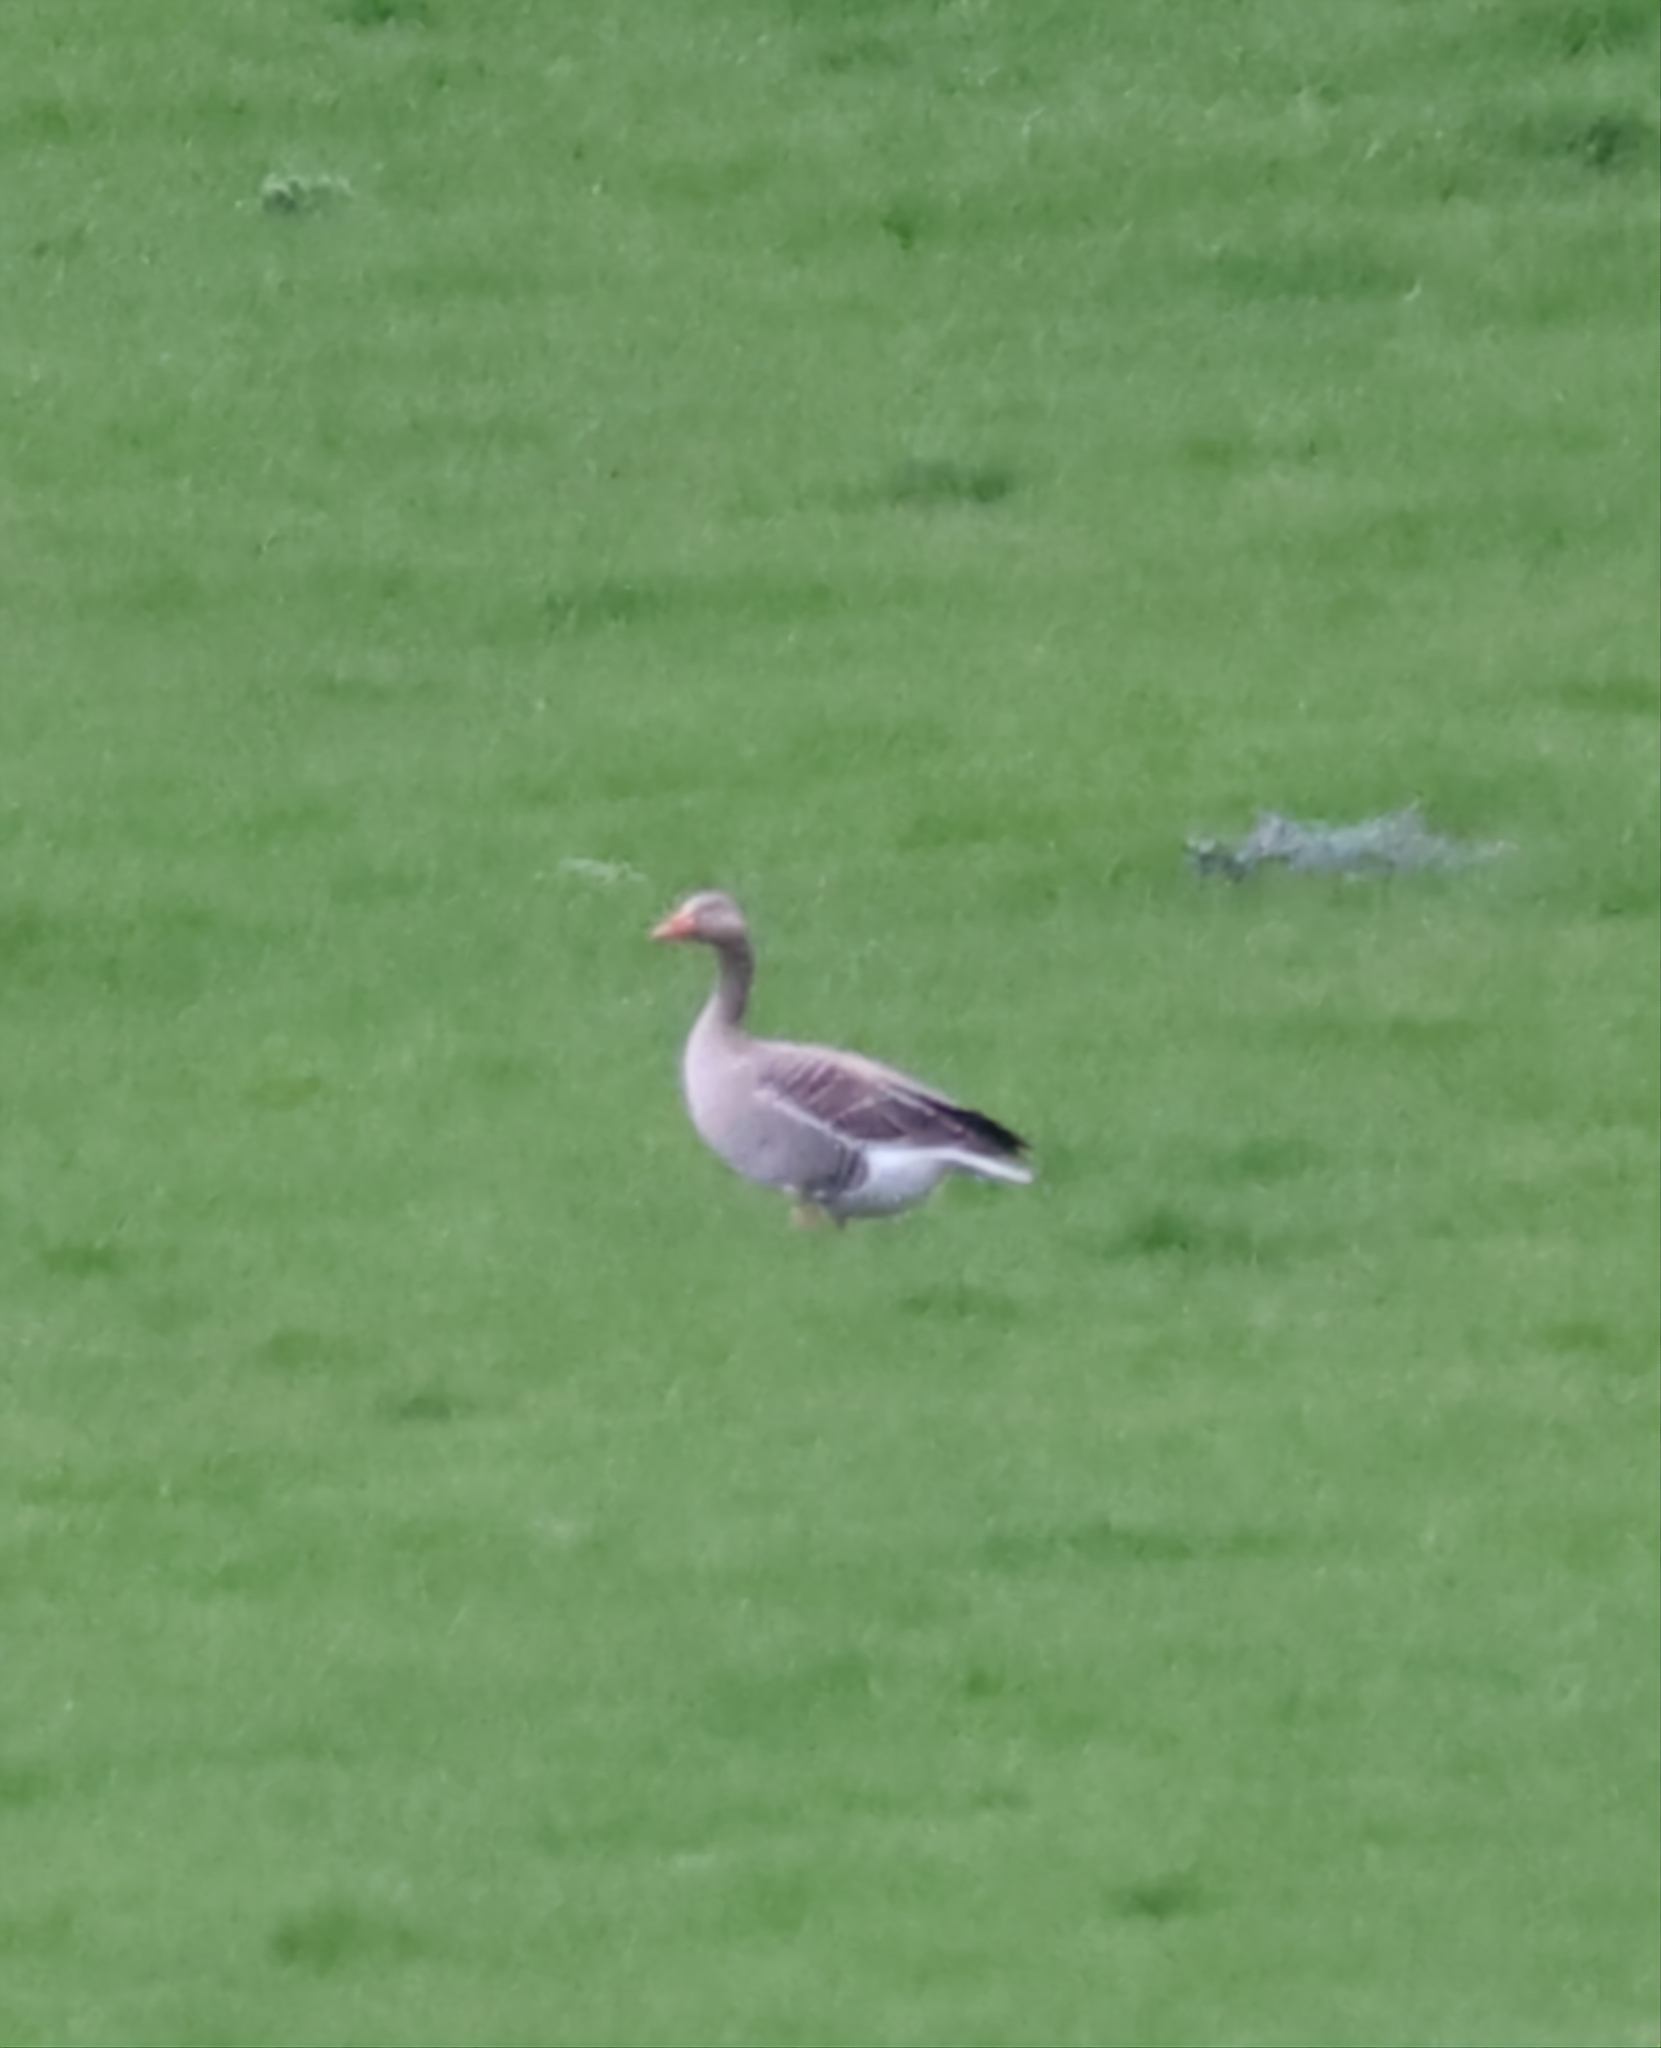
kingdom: Animalia
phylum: Chordata
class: Aves
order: Anseriformes
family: Anatidae
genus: Anser
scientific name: Anser anser
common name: Greylag goose
